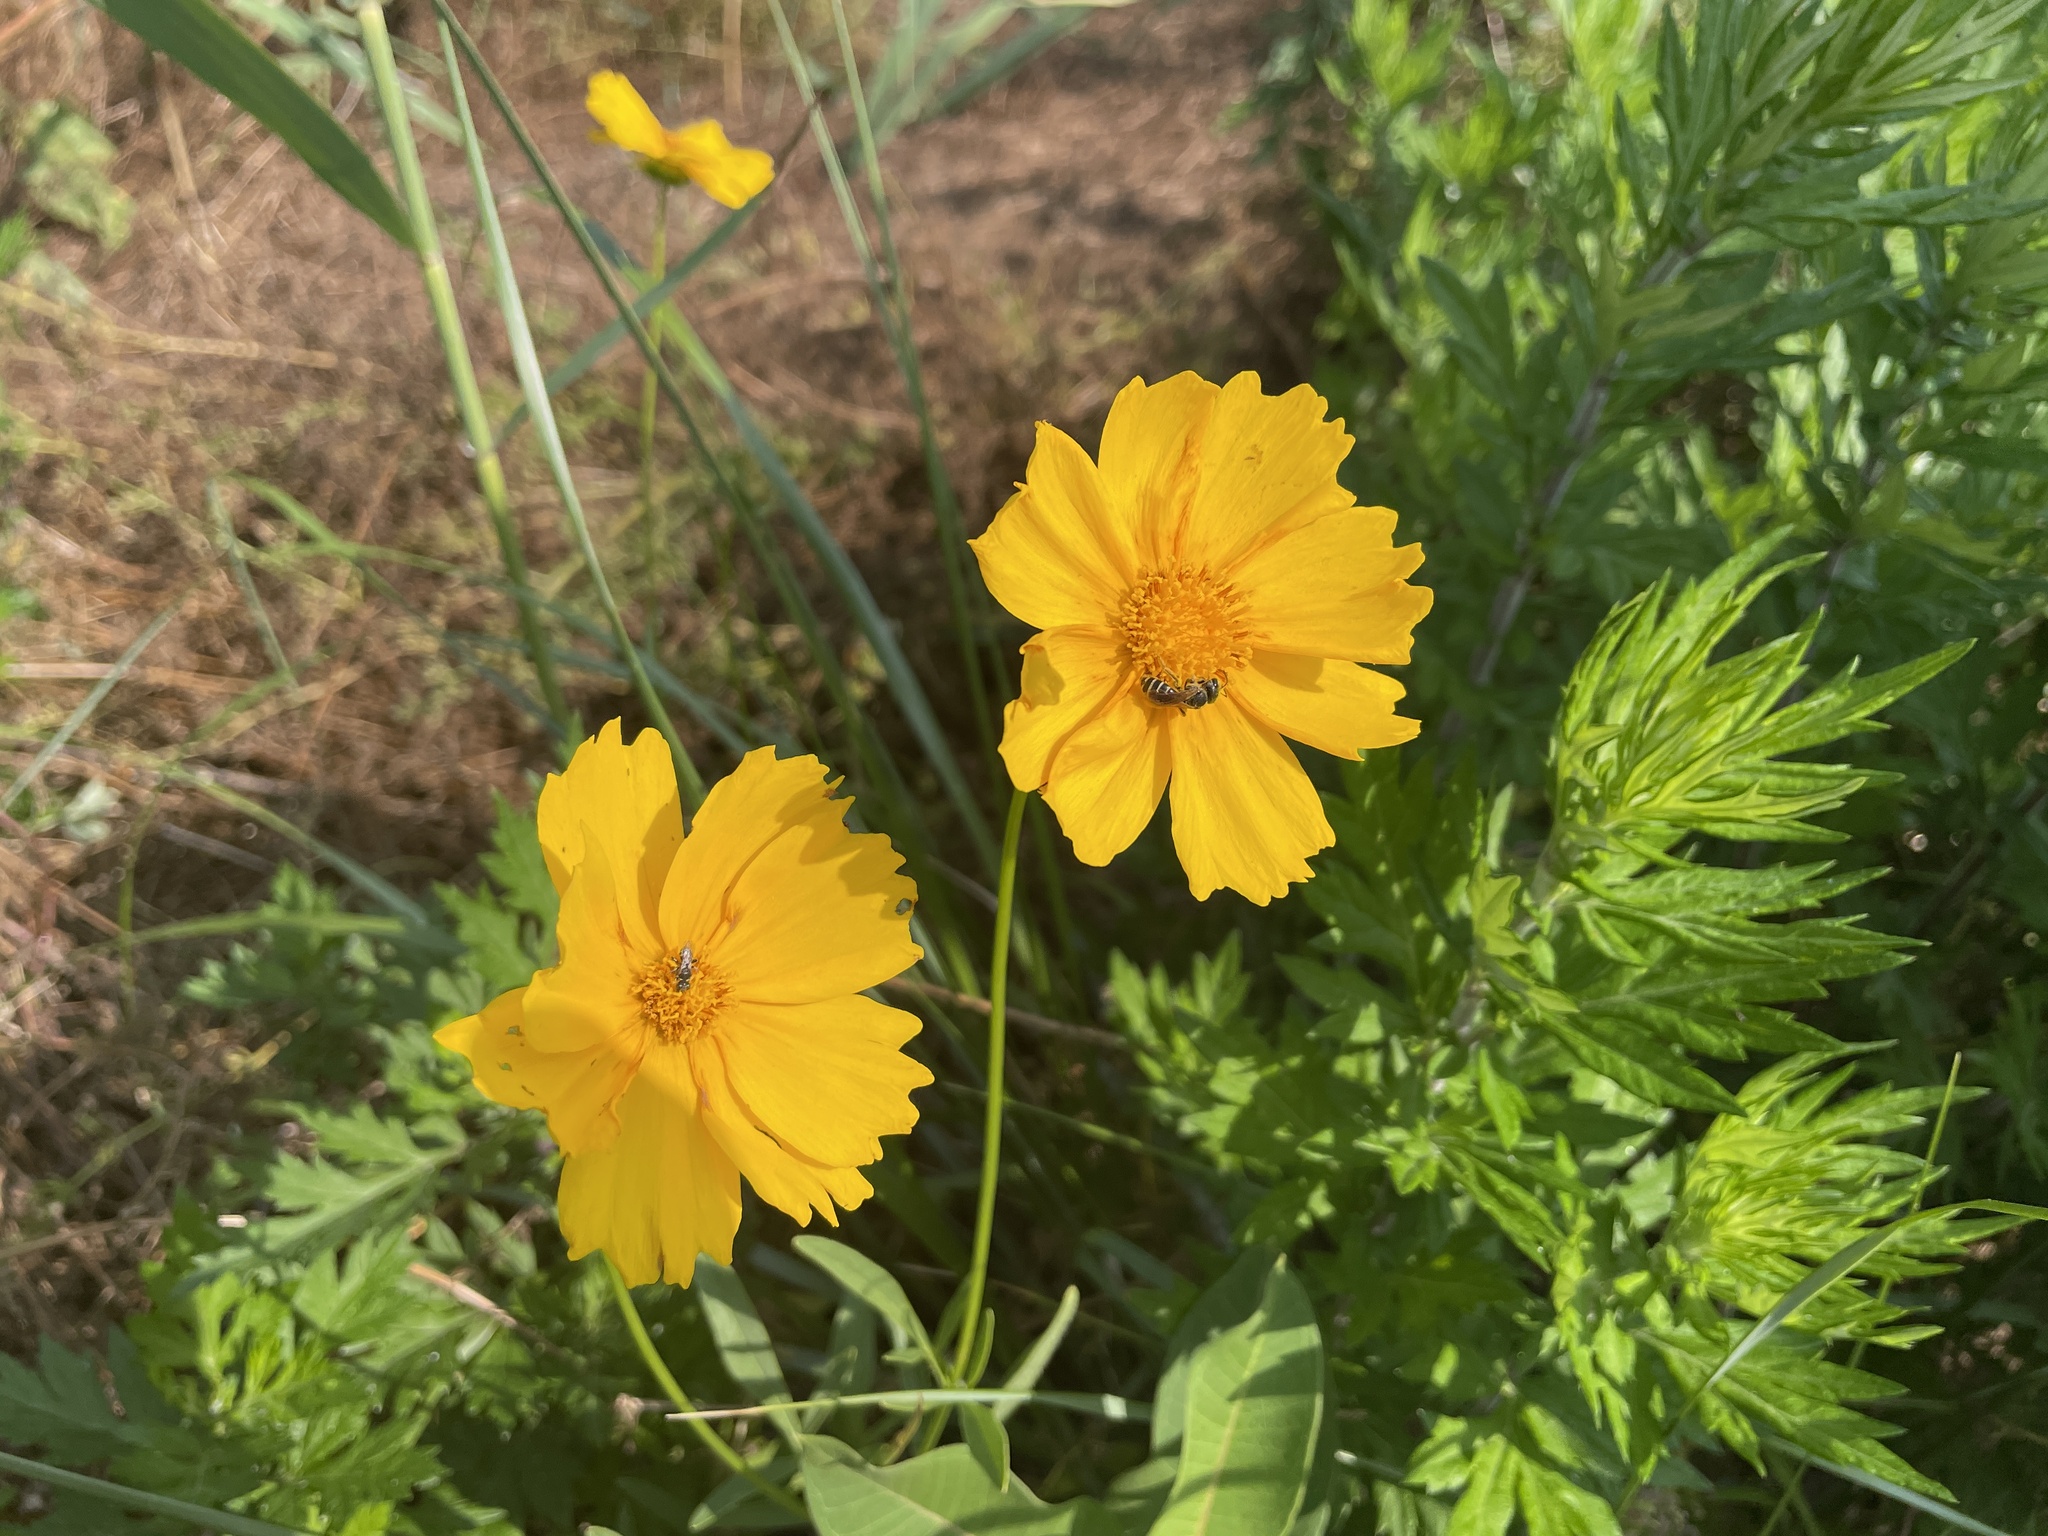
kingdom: Plantae
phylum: Tracheophyta
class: Magnoliopsida
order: Asterales
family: Asteraceae
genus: Coreopsis
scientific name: Coreopsis lanceolata
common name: Garden coreopsis
